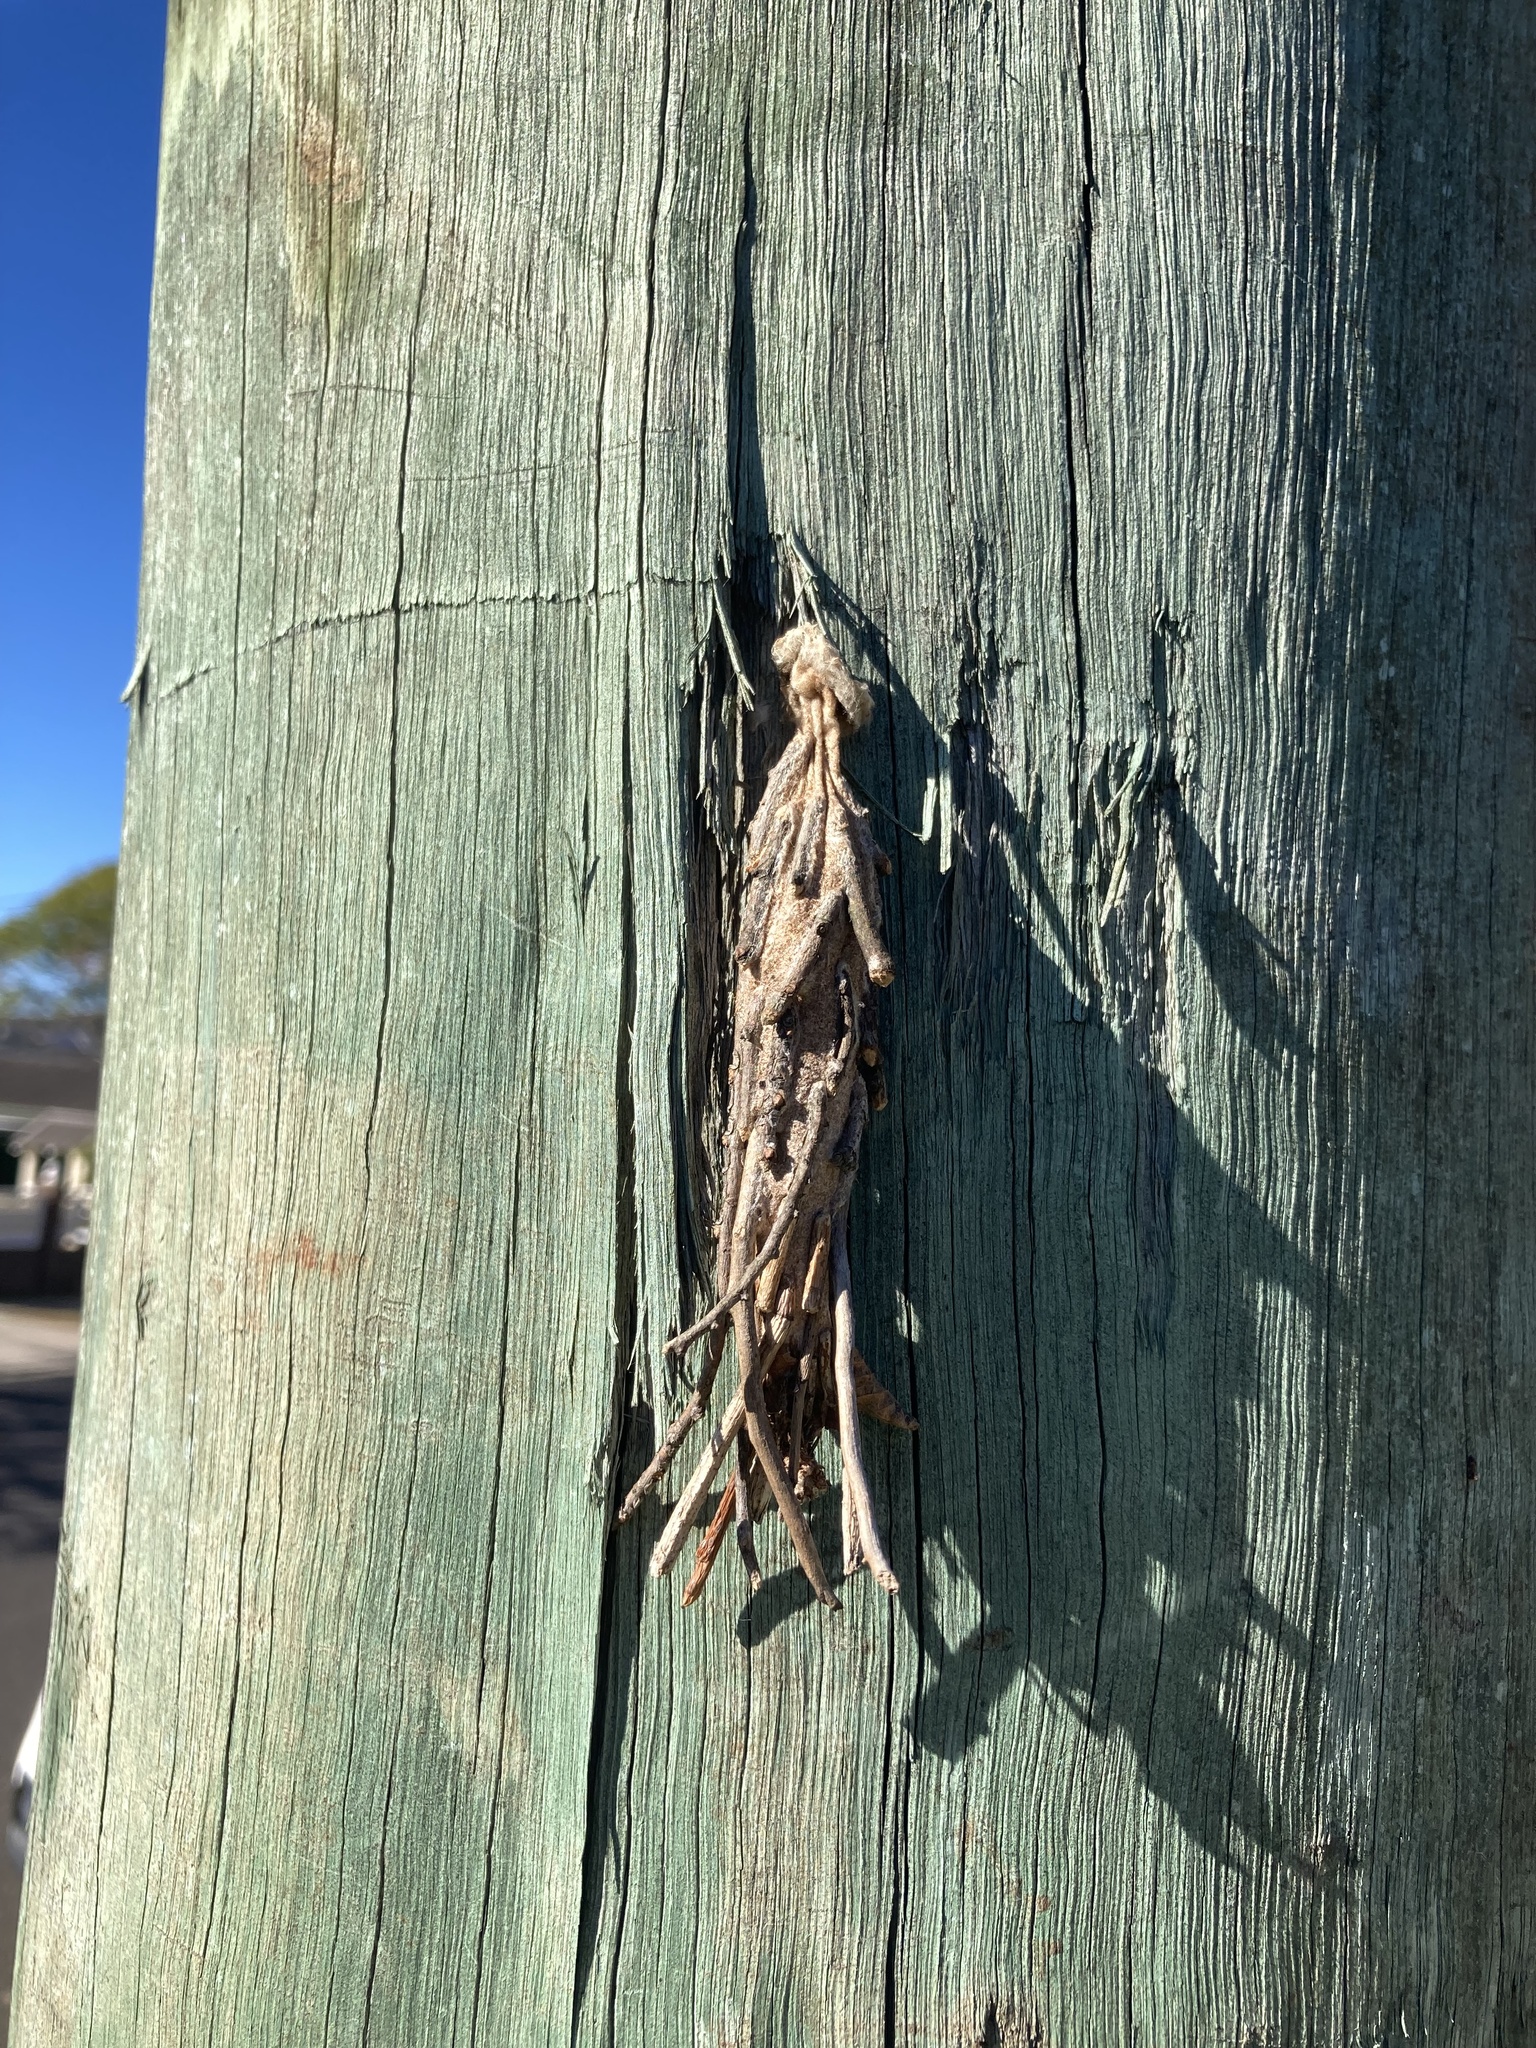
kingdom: Animalia
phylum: Arthropoda
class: Insecta
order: Lepidoptera
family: Psychidae
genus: Metura
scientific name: Metura elongatus
